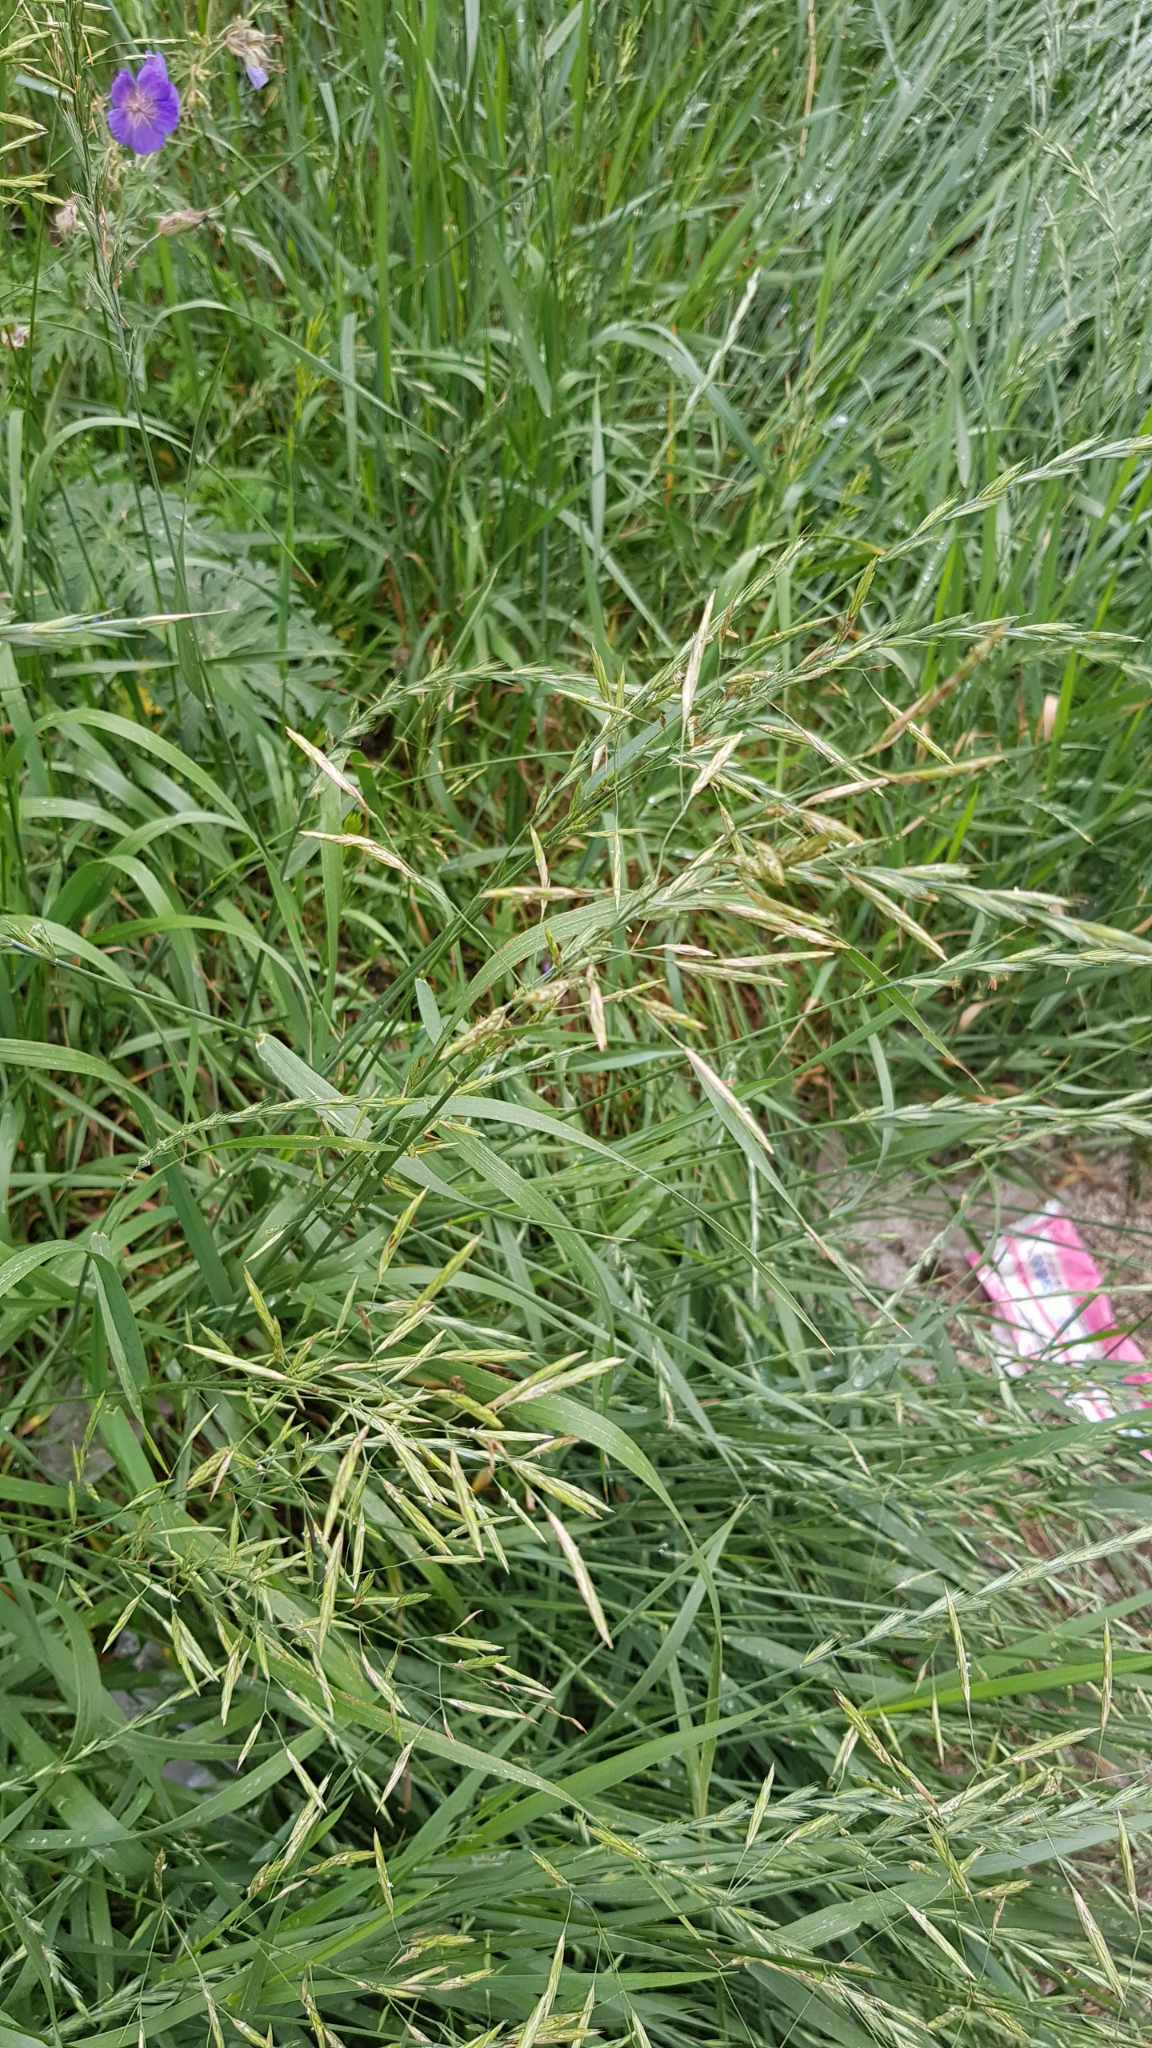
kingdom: Plantae
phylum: Tracheophyta
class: Liliopsida
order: Poales
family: Poaceae
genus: Bromus
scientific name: Bromus inermis
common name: Smooth brome
